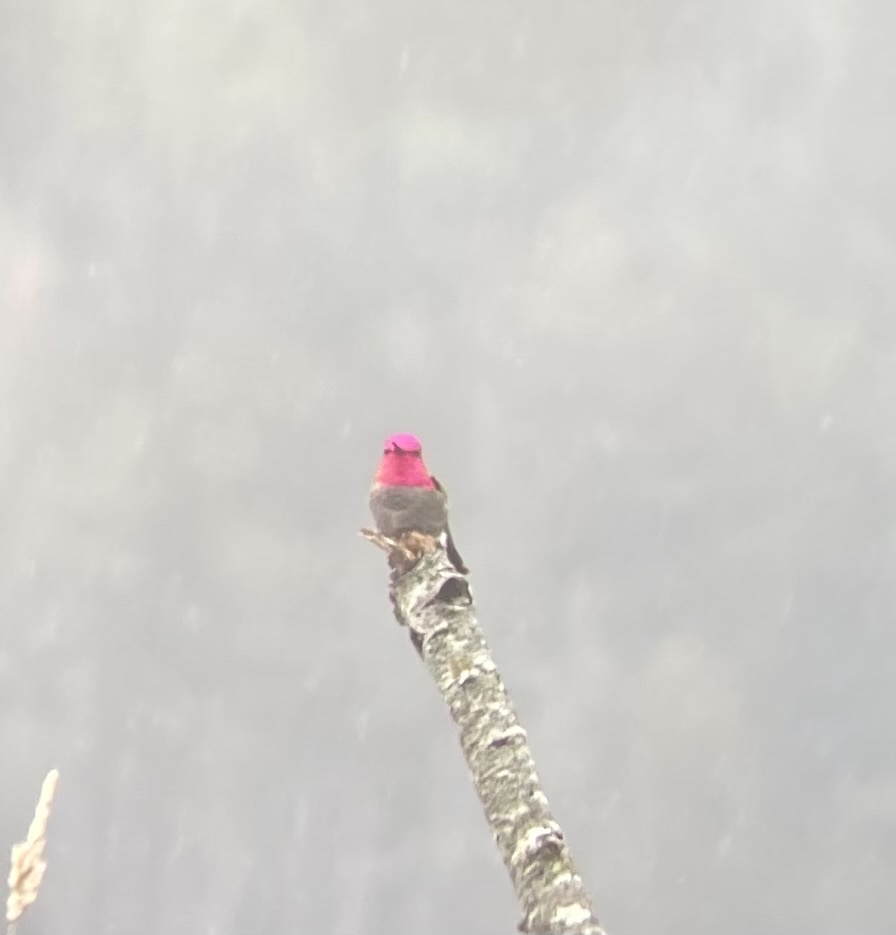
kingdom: Animalia
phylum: Chordata
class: Aves
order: Apodiformes
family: Trochilidae
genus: Calypte
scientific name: Calypte anna
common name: Anna's hummingbird
